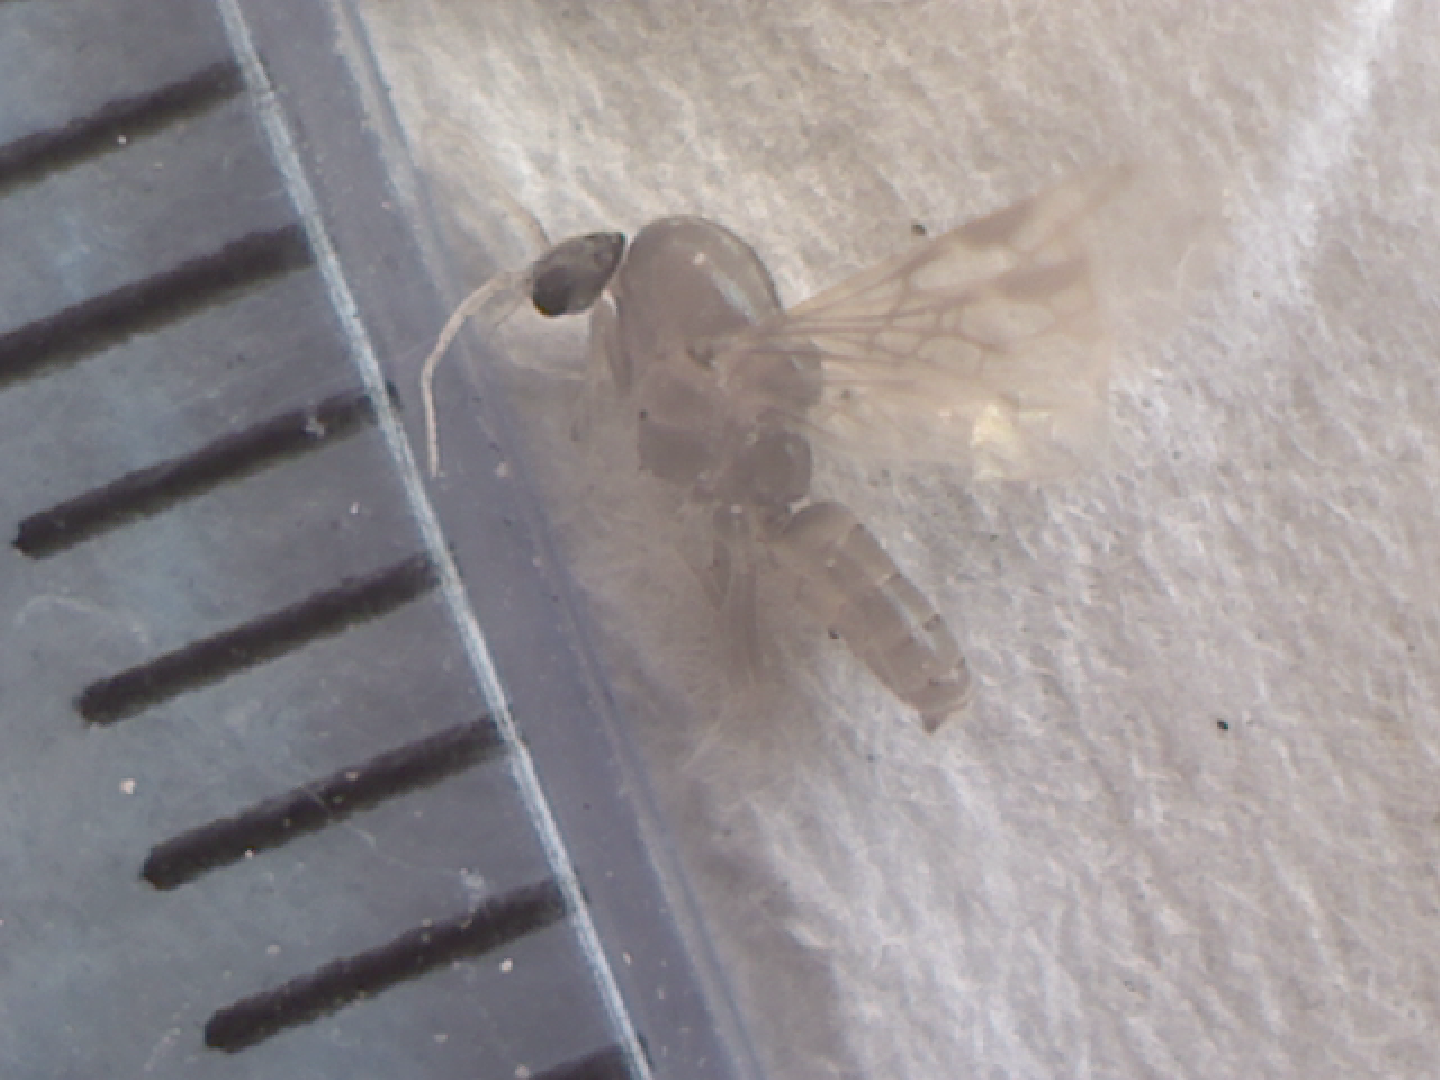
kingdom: Animalia
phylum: Arthropoda
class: Insecta
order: Hymenoptera
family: Formicidae
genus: Linepithema
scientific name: Linepithema humile
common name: Argentine ant
